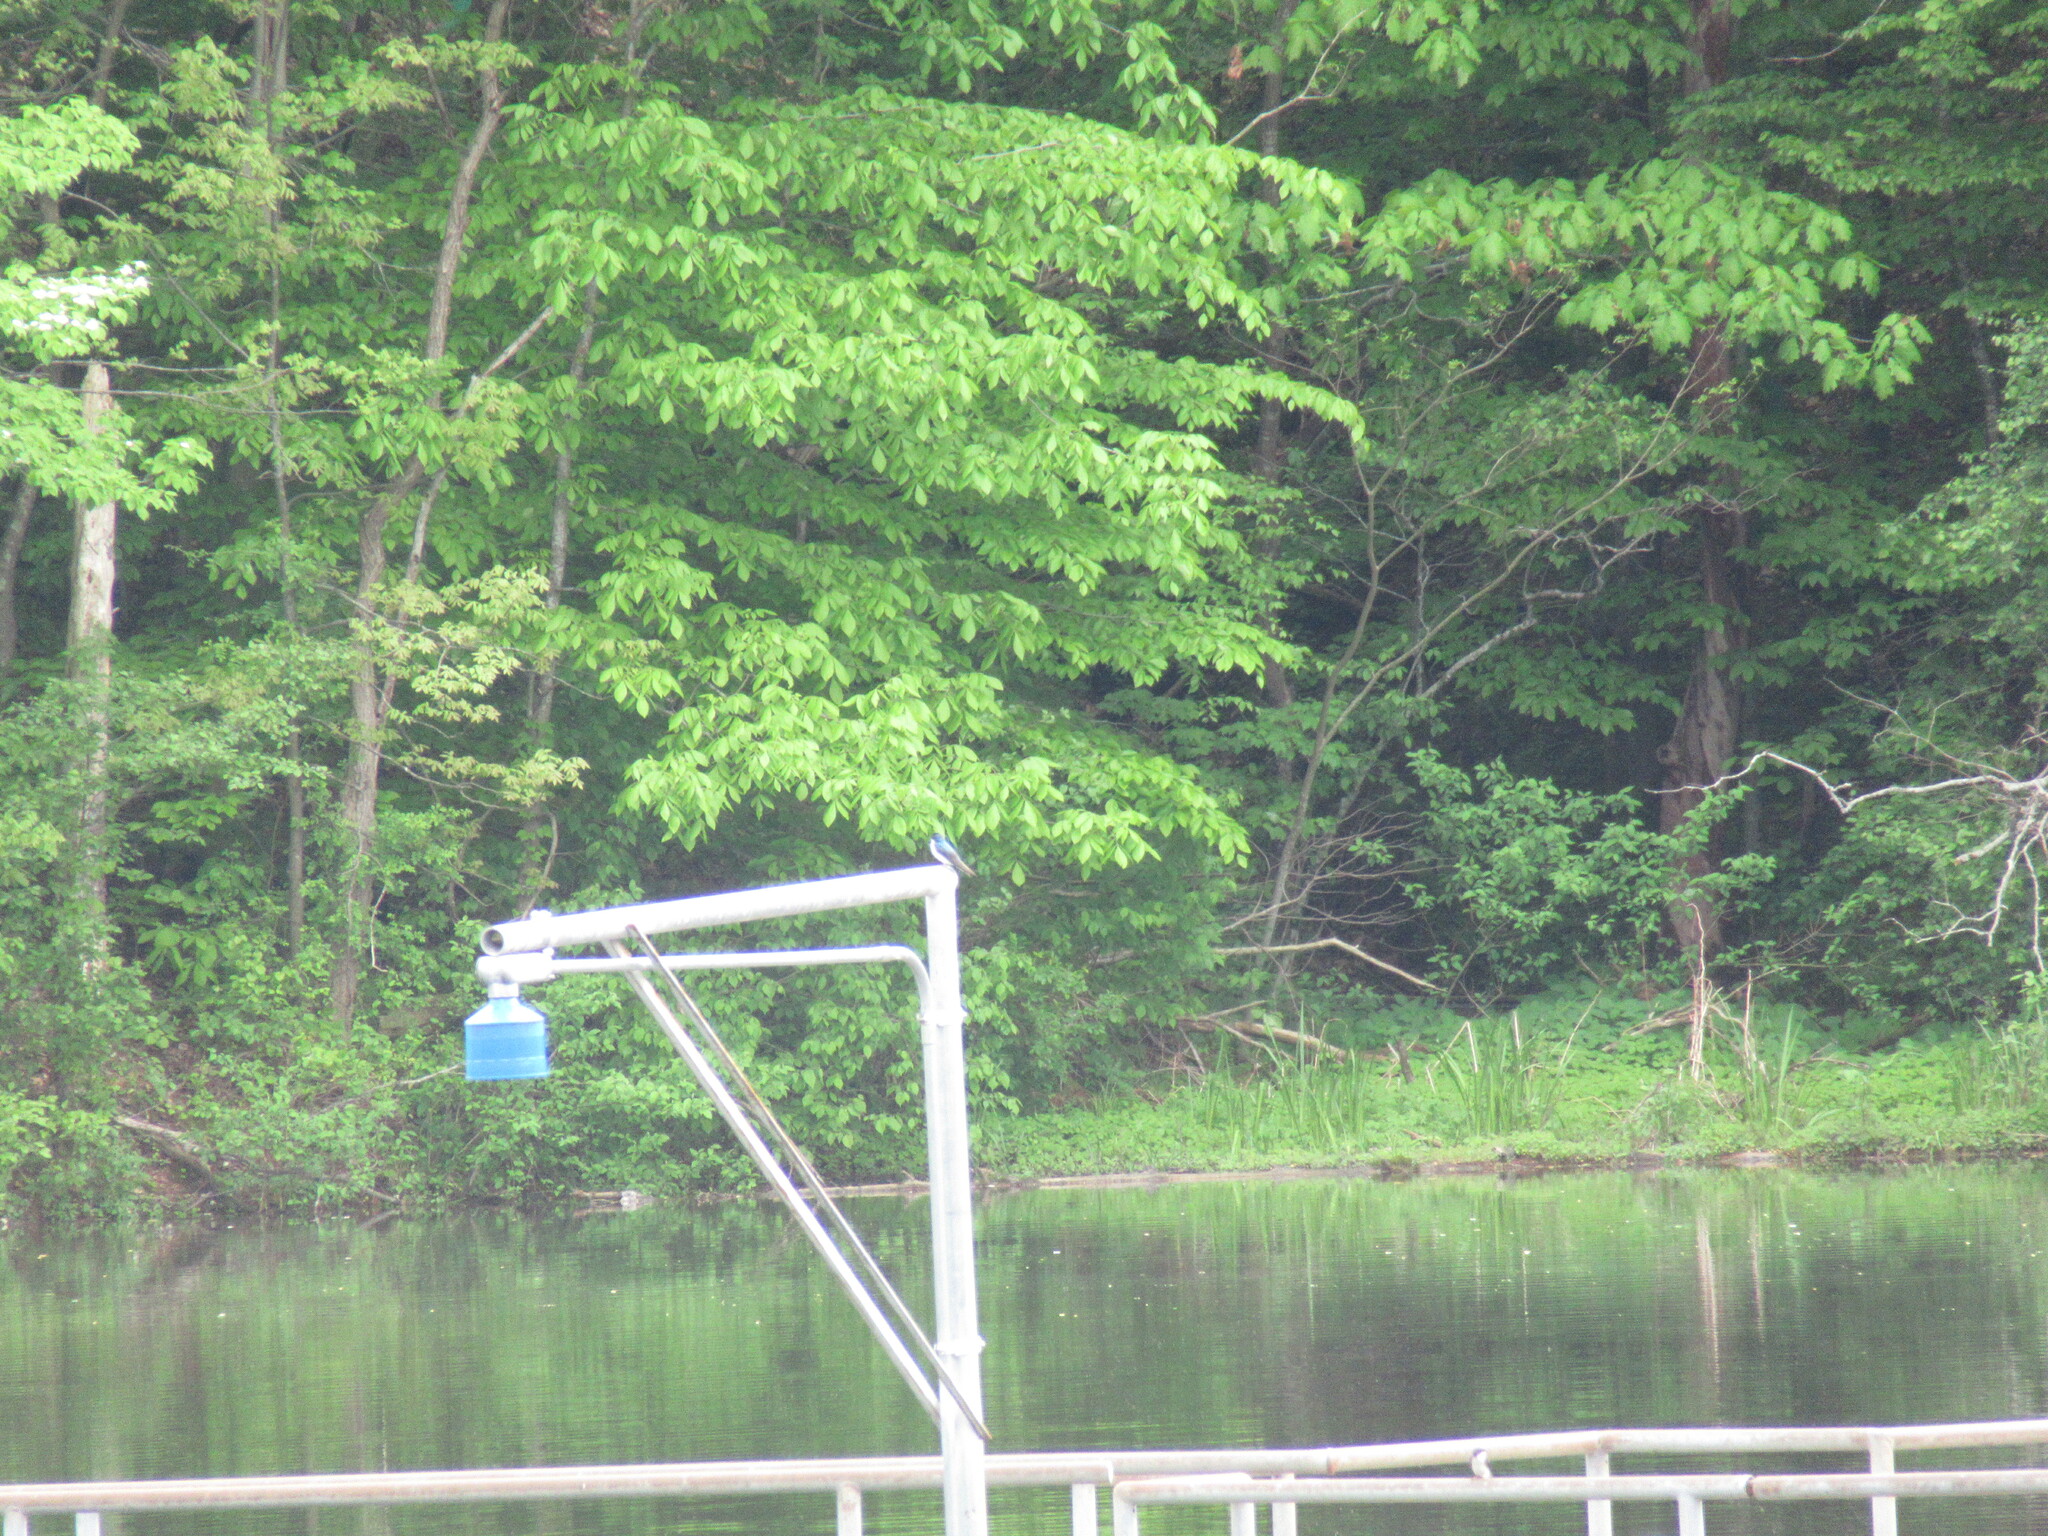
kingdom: Animalia
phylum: Chordata
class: Aves
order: Passeriformes
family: Hirundinidae
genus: Tachycineta
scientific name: Tachycineta bicolor
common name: Tree swallow
